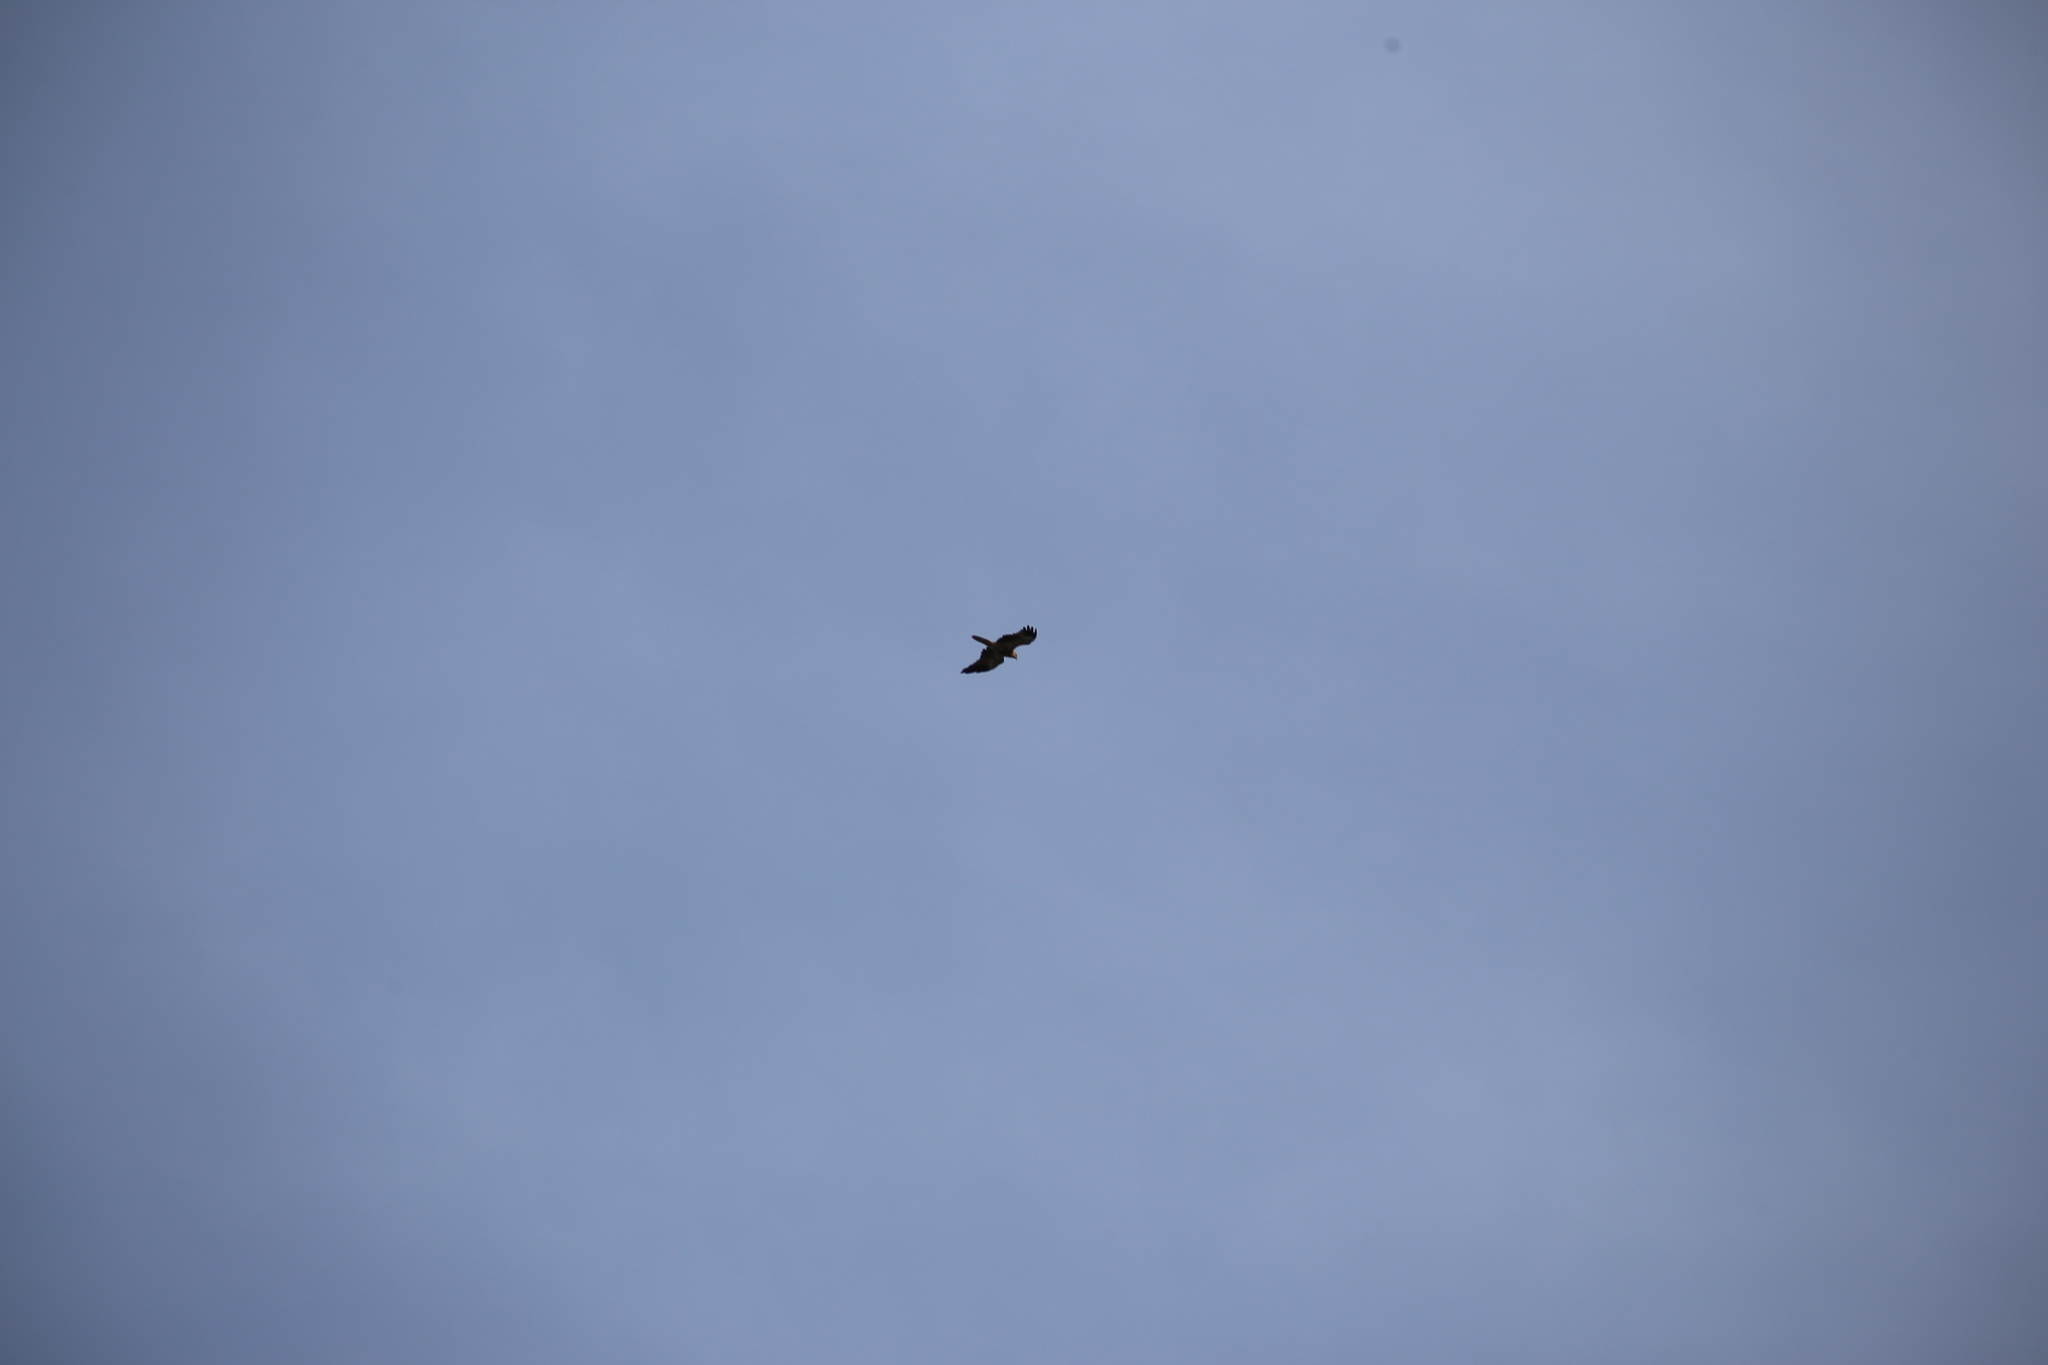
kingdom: Animalia
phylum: Chordata
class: Aves
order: Accipitriformes
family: Accipitridae
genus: Haliastur
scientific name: Haliastur sphenurus
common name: Whistling kite
